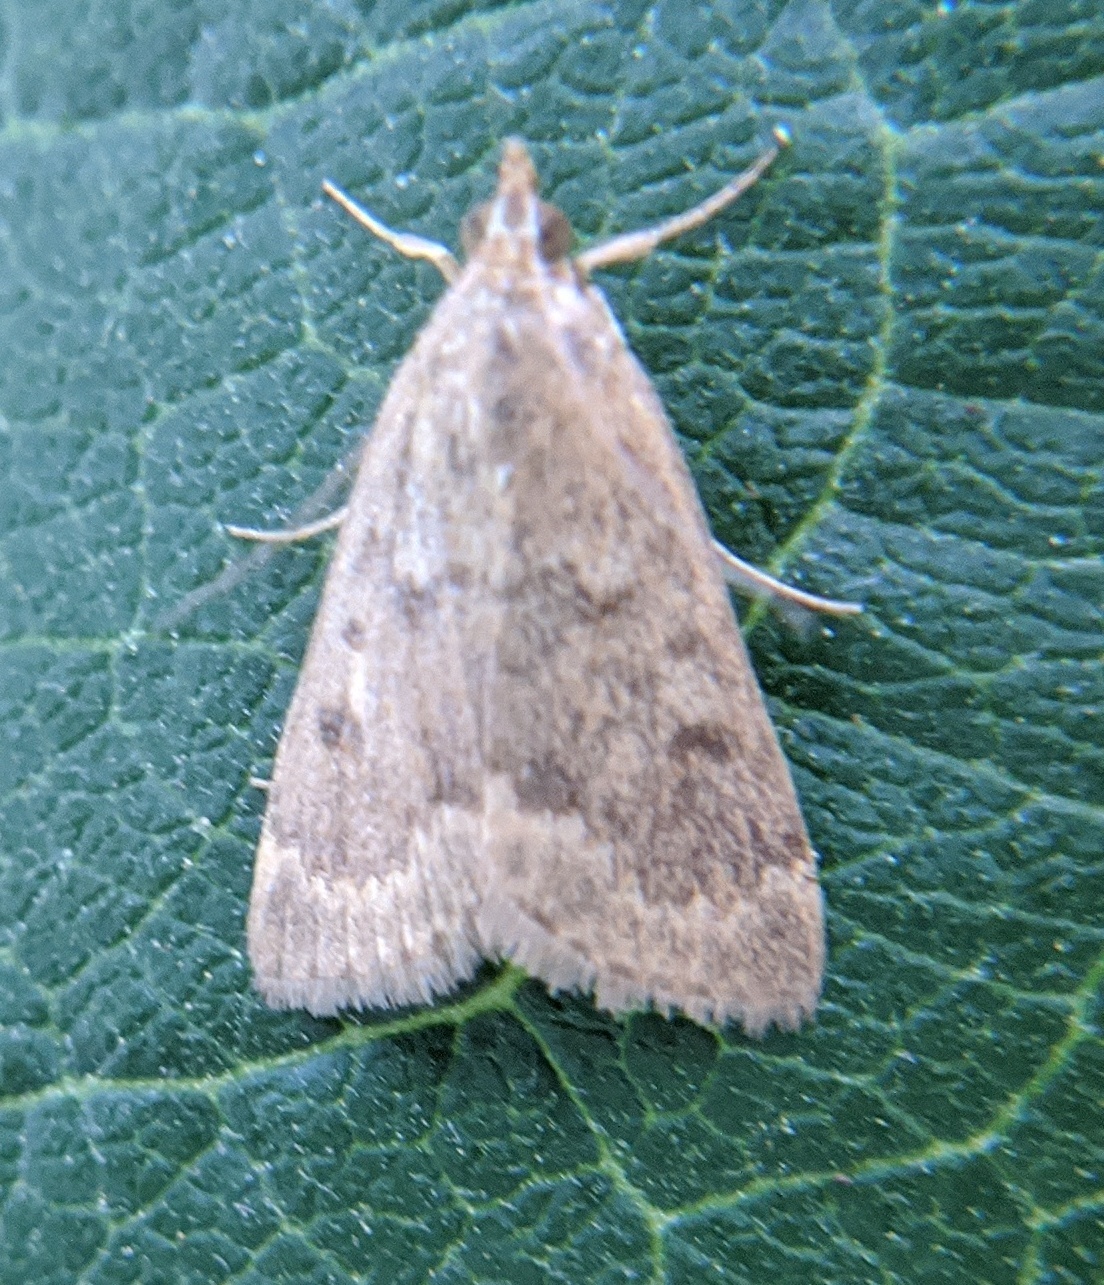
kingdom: Animalia
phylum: Arthropoda
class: Insecta
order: Lepidoptera
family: Crambidae
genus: Achyra
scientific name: Achyra rantalis
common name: Garden webworm
